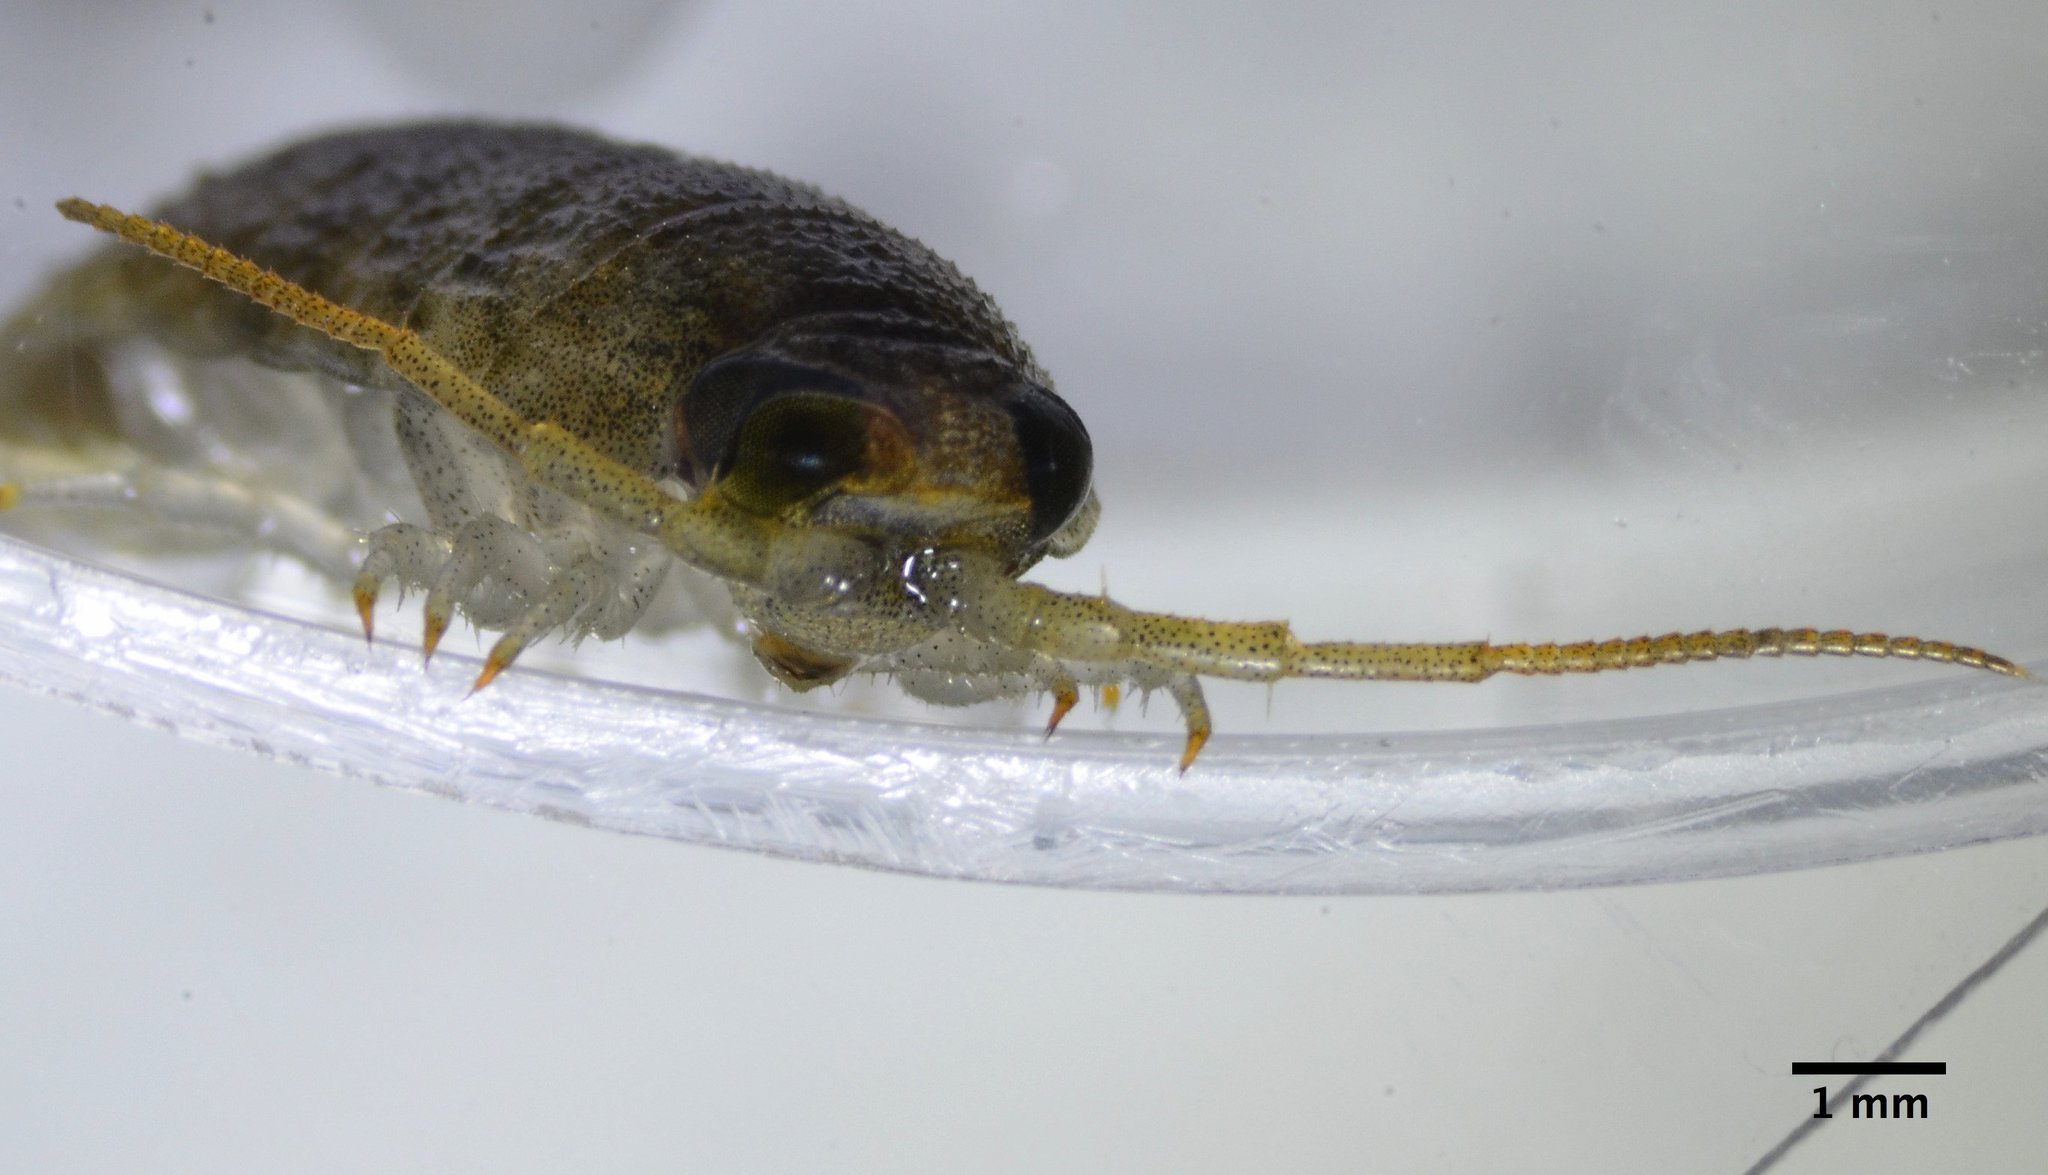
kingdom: Animalia
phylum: Arthropoda
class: Malacostraca
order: Isopoda
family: Ligiidae
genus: Ligia
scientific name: Ligia occidentalis
